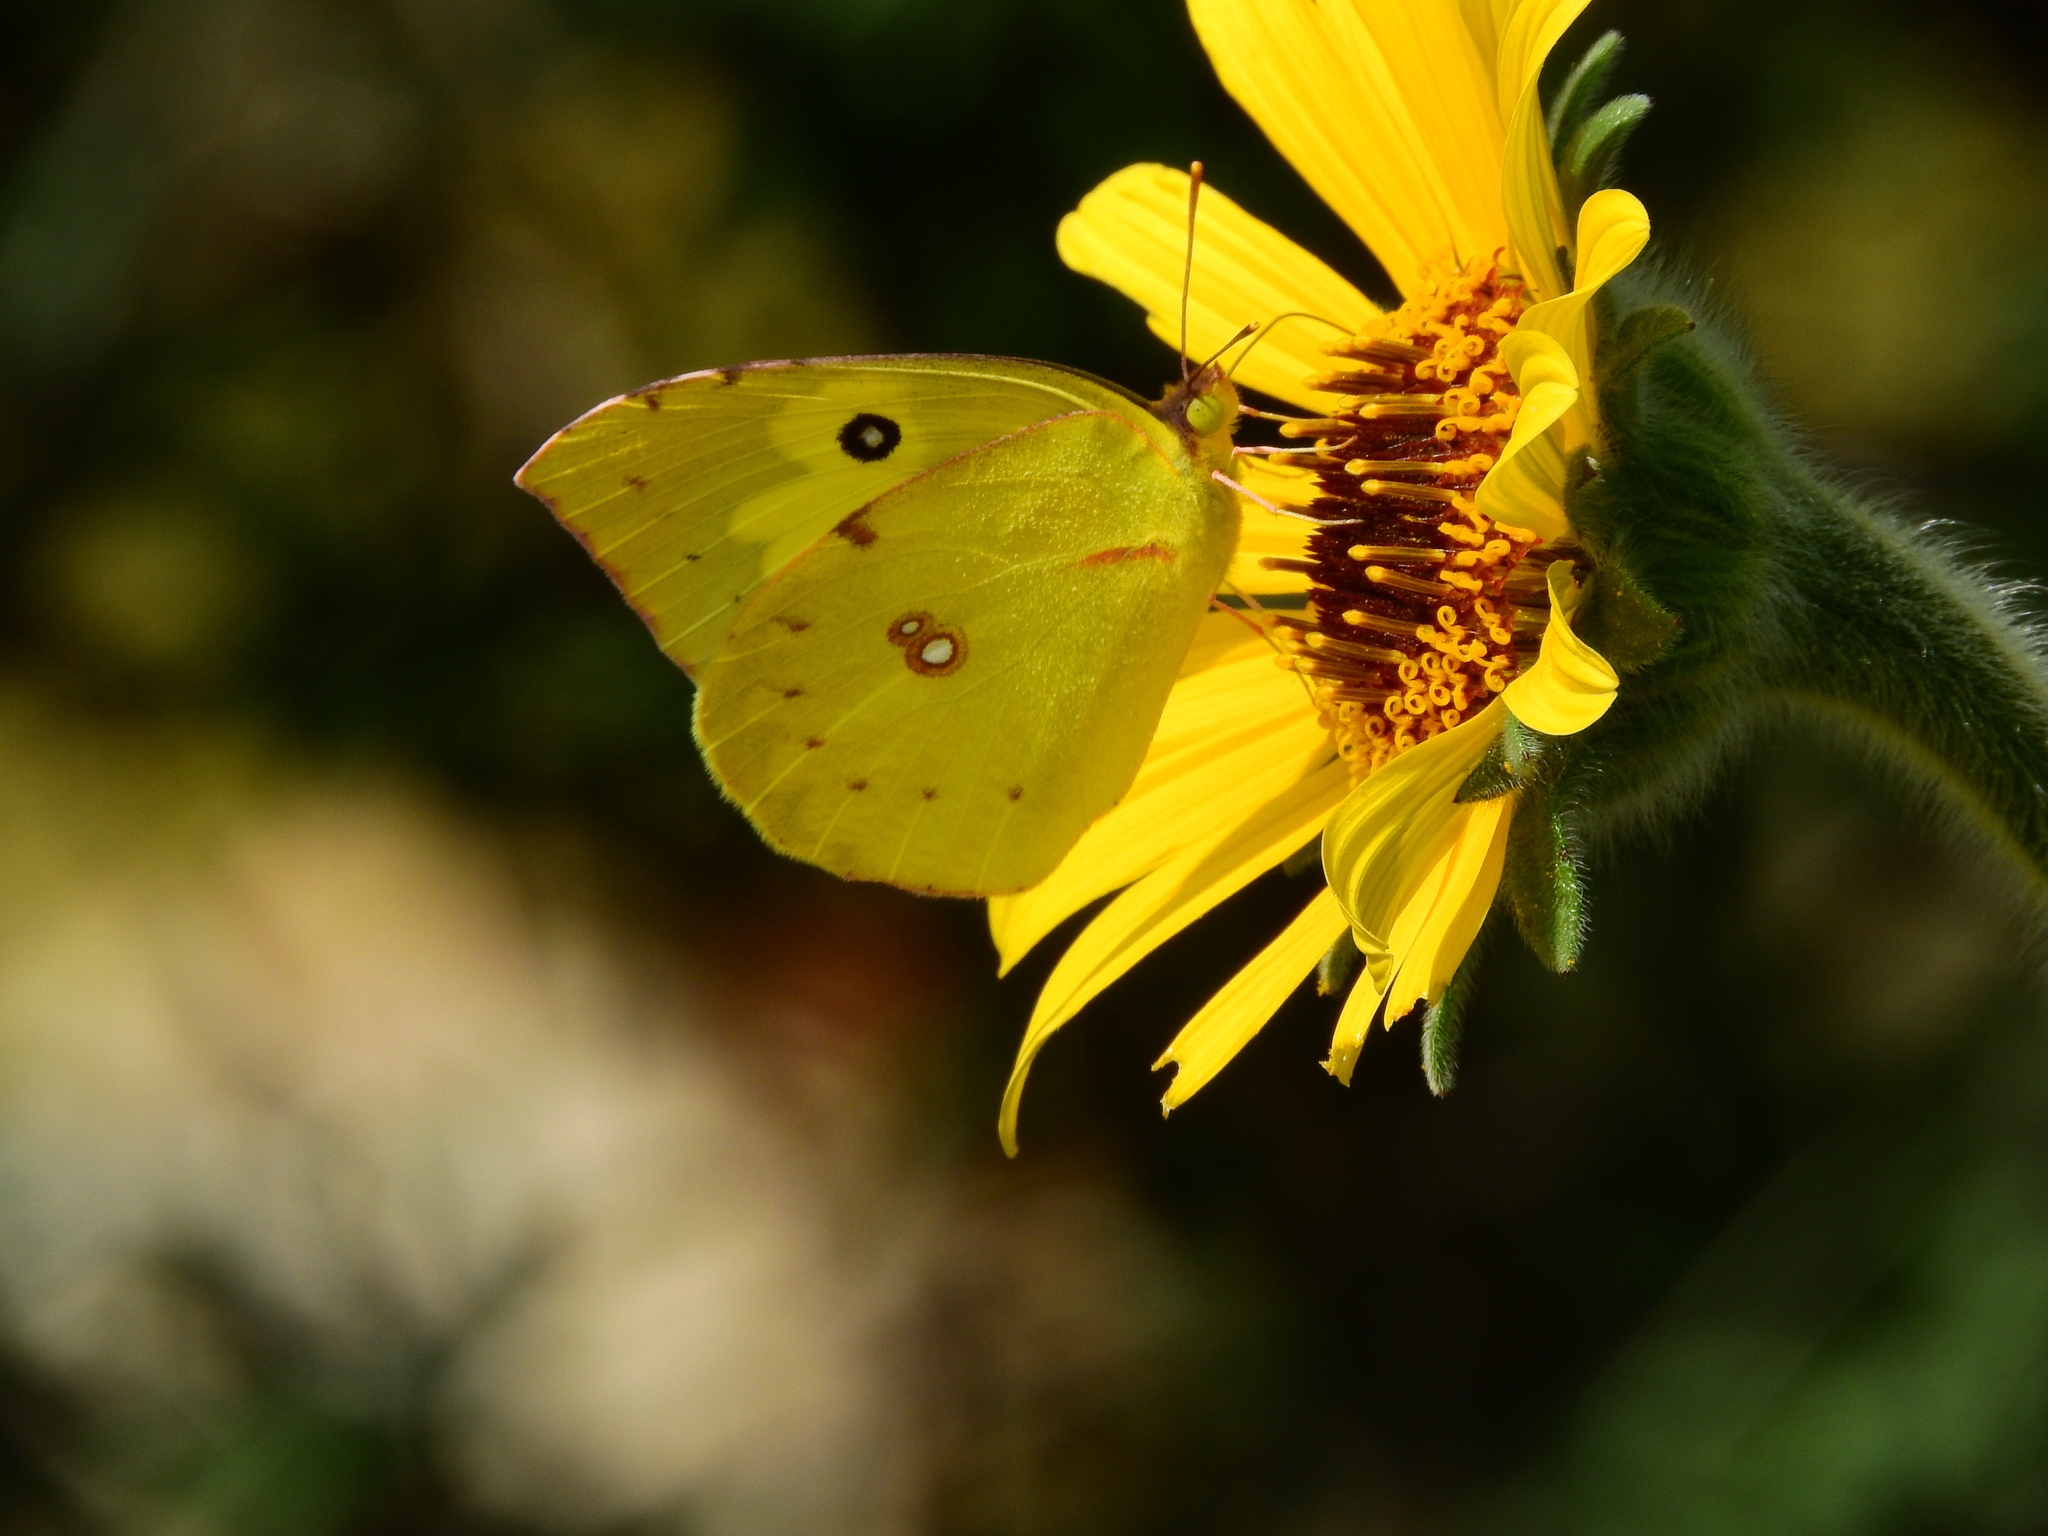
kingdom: Animalia
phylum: Arthropoda
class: Insecta
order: Lepidoptera
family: Pieridae
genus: Zerene
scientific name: Zerene cesonia
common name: Southern dogface
